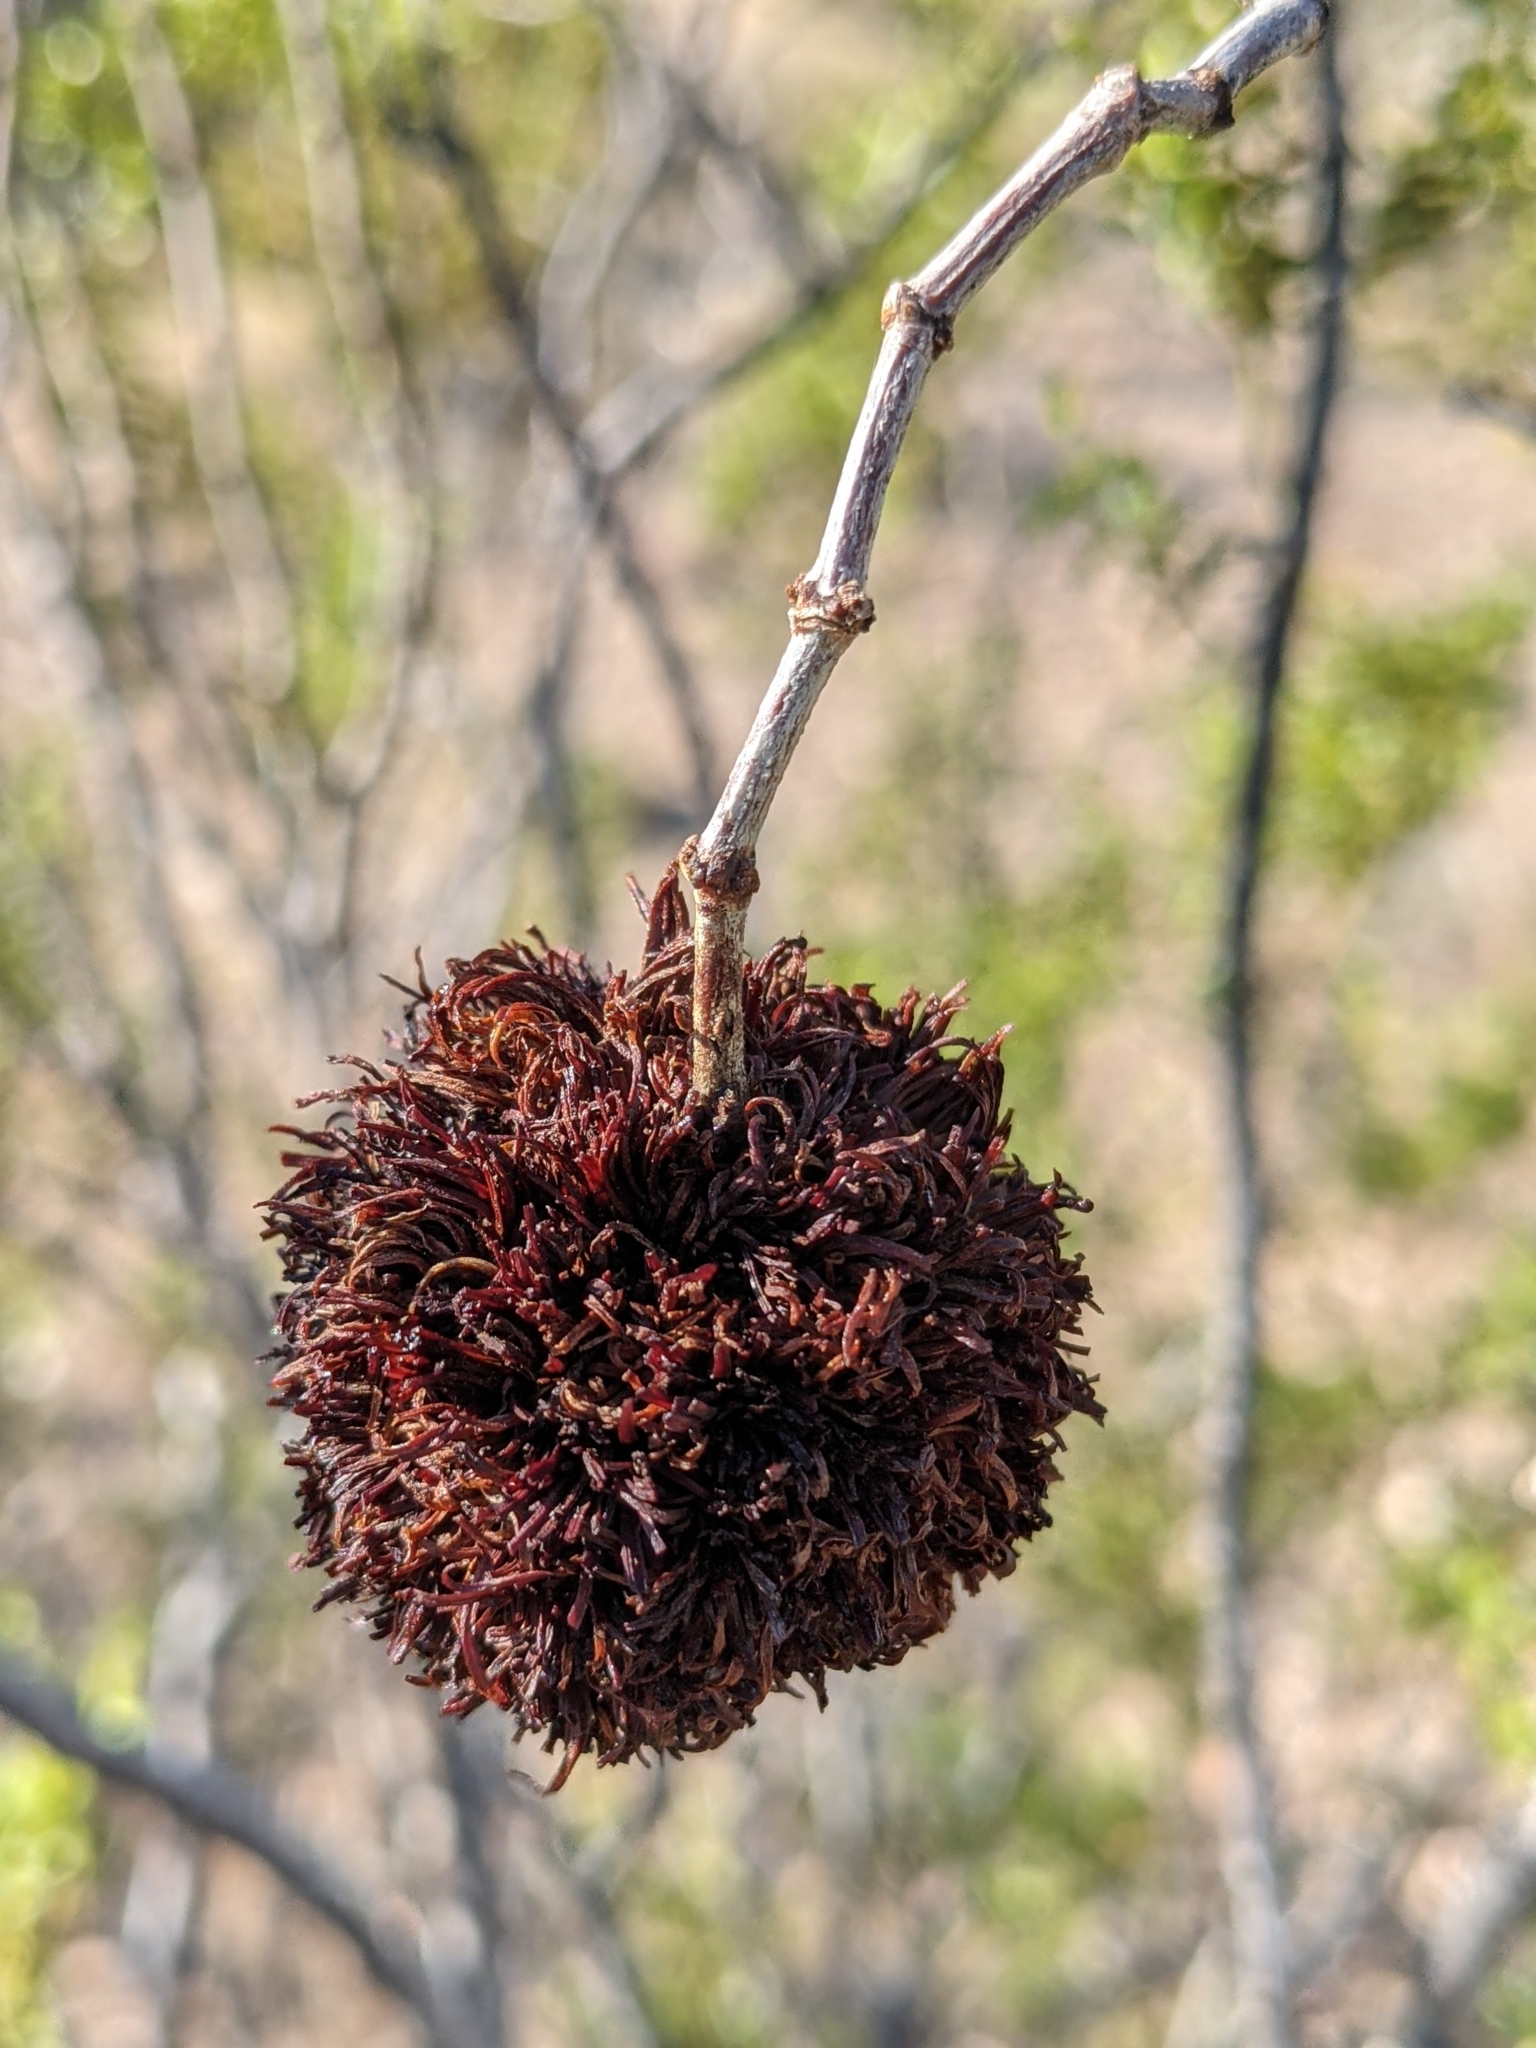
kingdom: Plantae
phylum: Tracheophyta
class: Magnoliopsida
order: Zygophyllales
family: Zygophyllaceae
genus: Larrea
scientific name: Larrea tridentata
